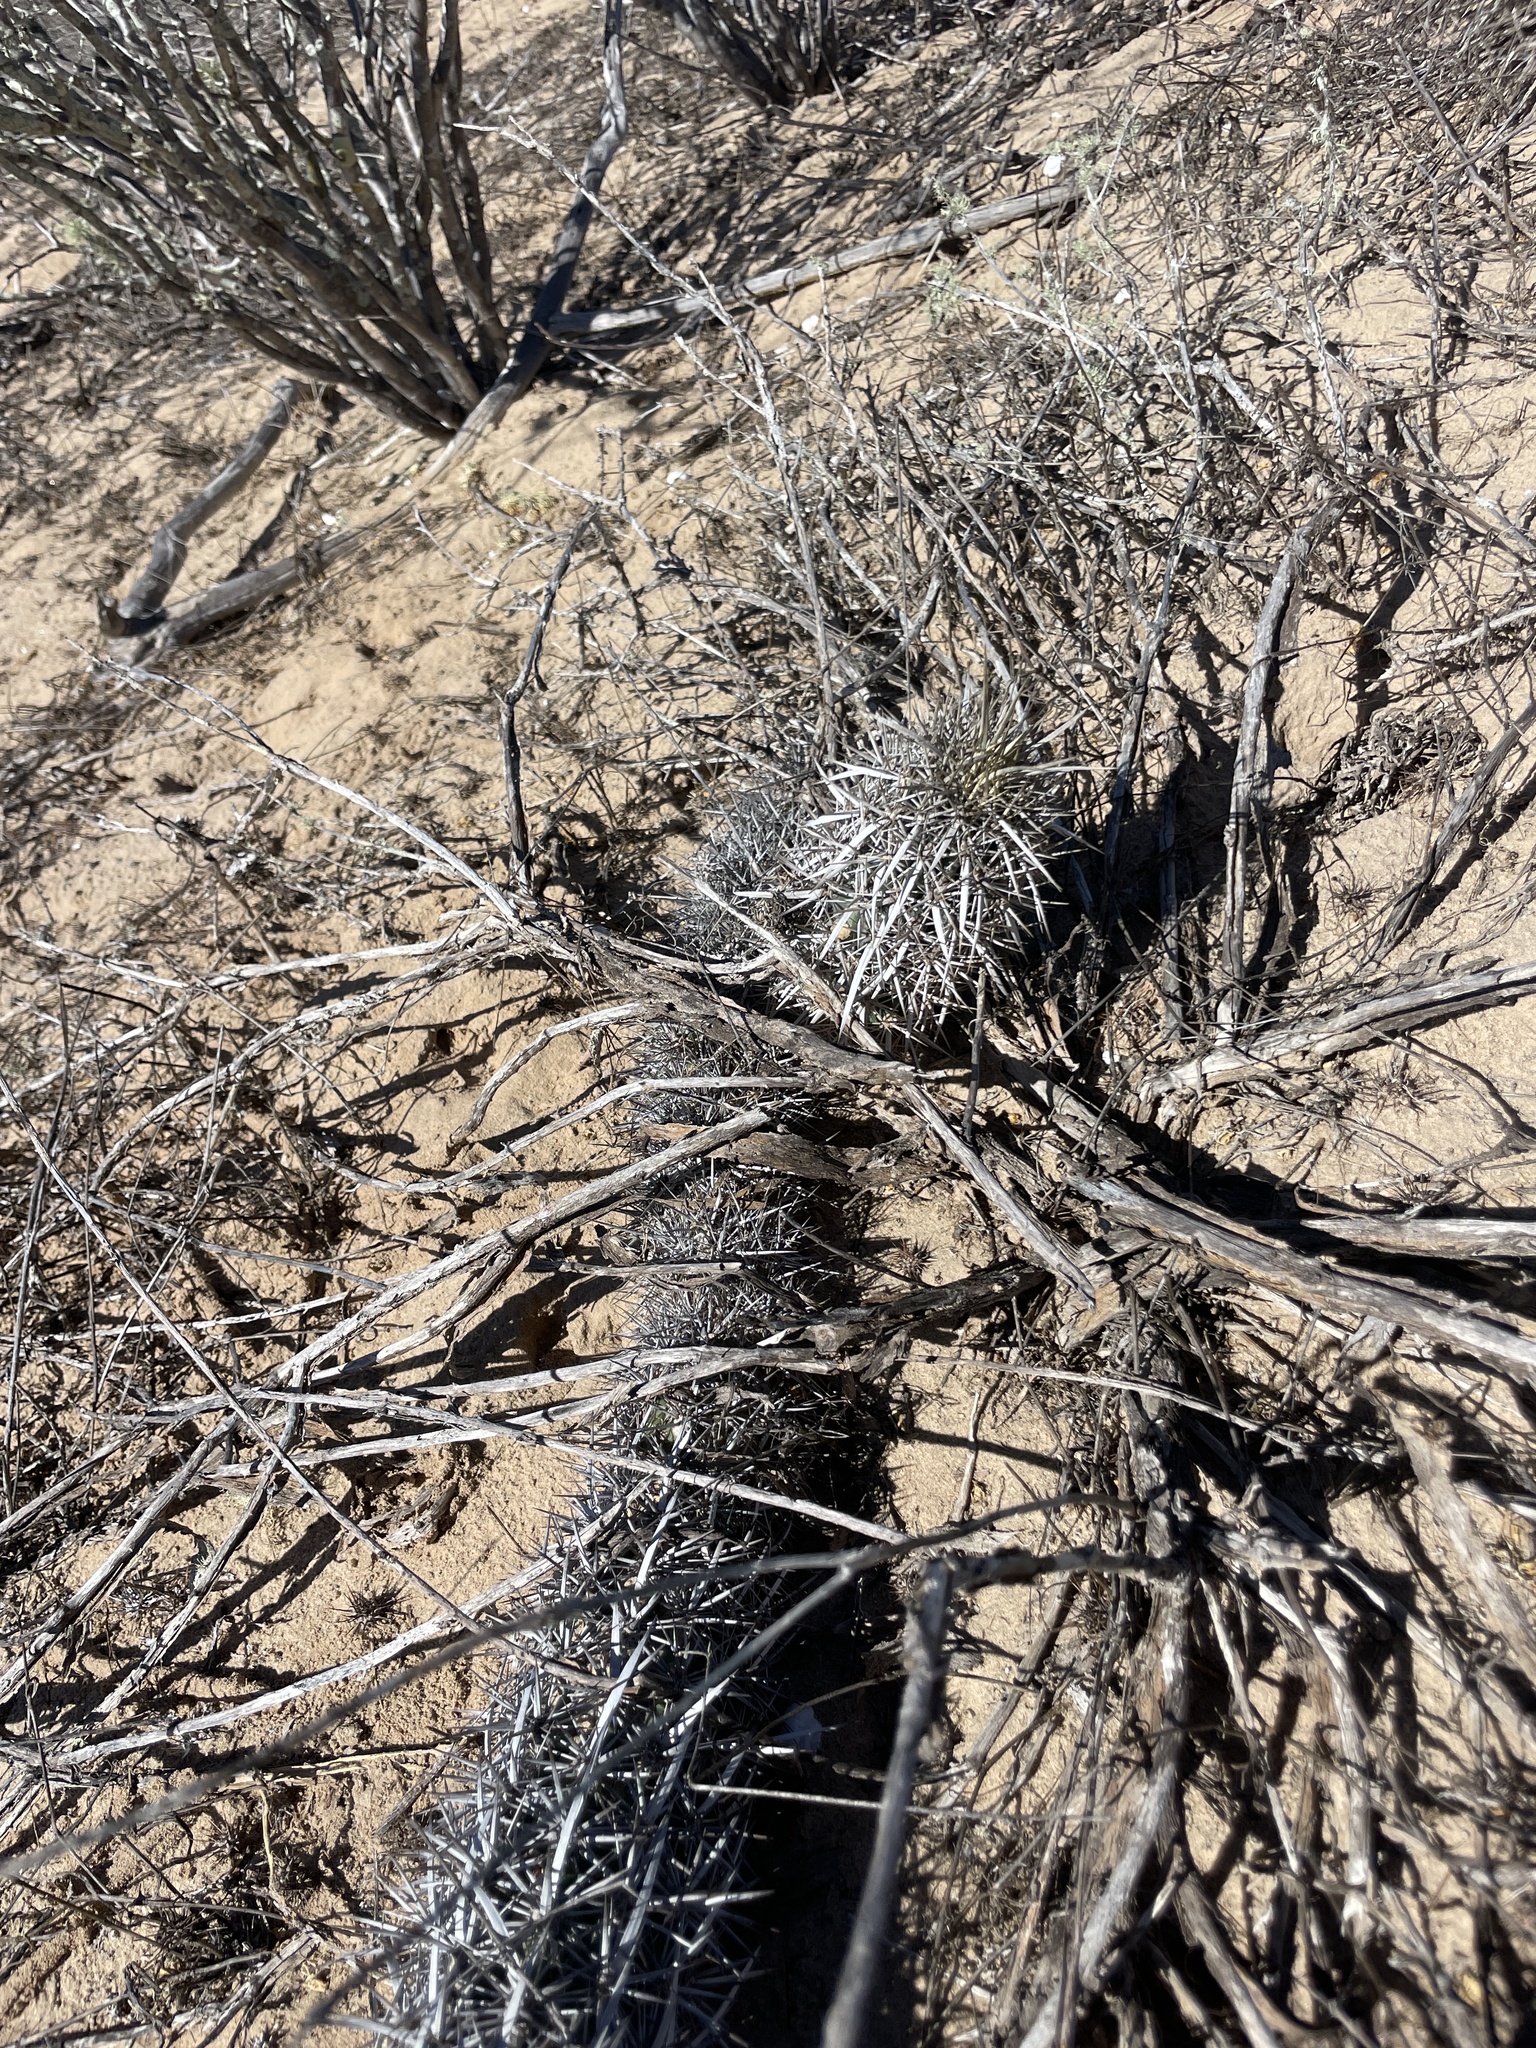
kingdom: Plantae
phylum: Tracheophyta
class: Magnoliopsida
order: Caryophyllales
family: Cactaceae
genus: Stenocereus
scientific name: Stenocereus eruca
